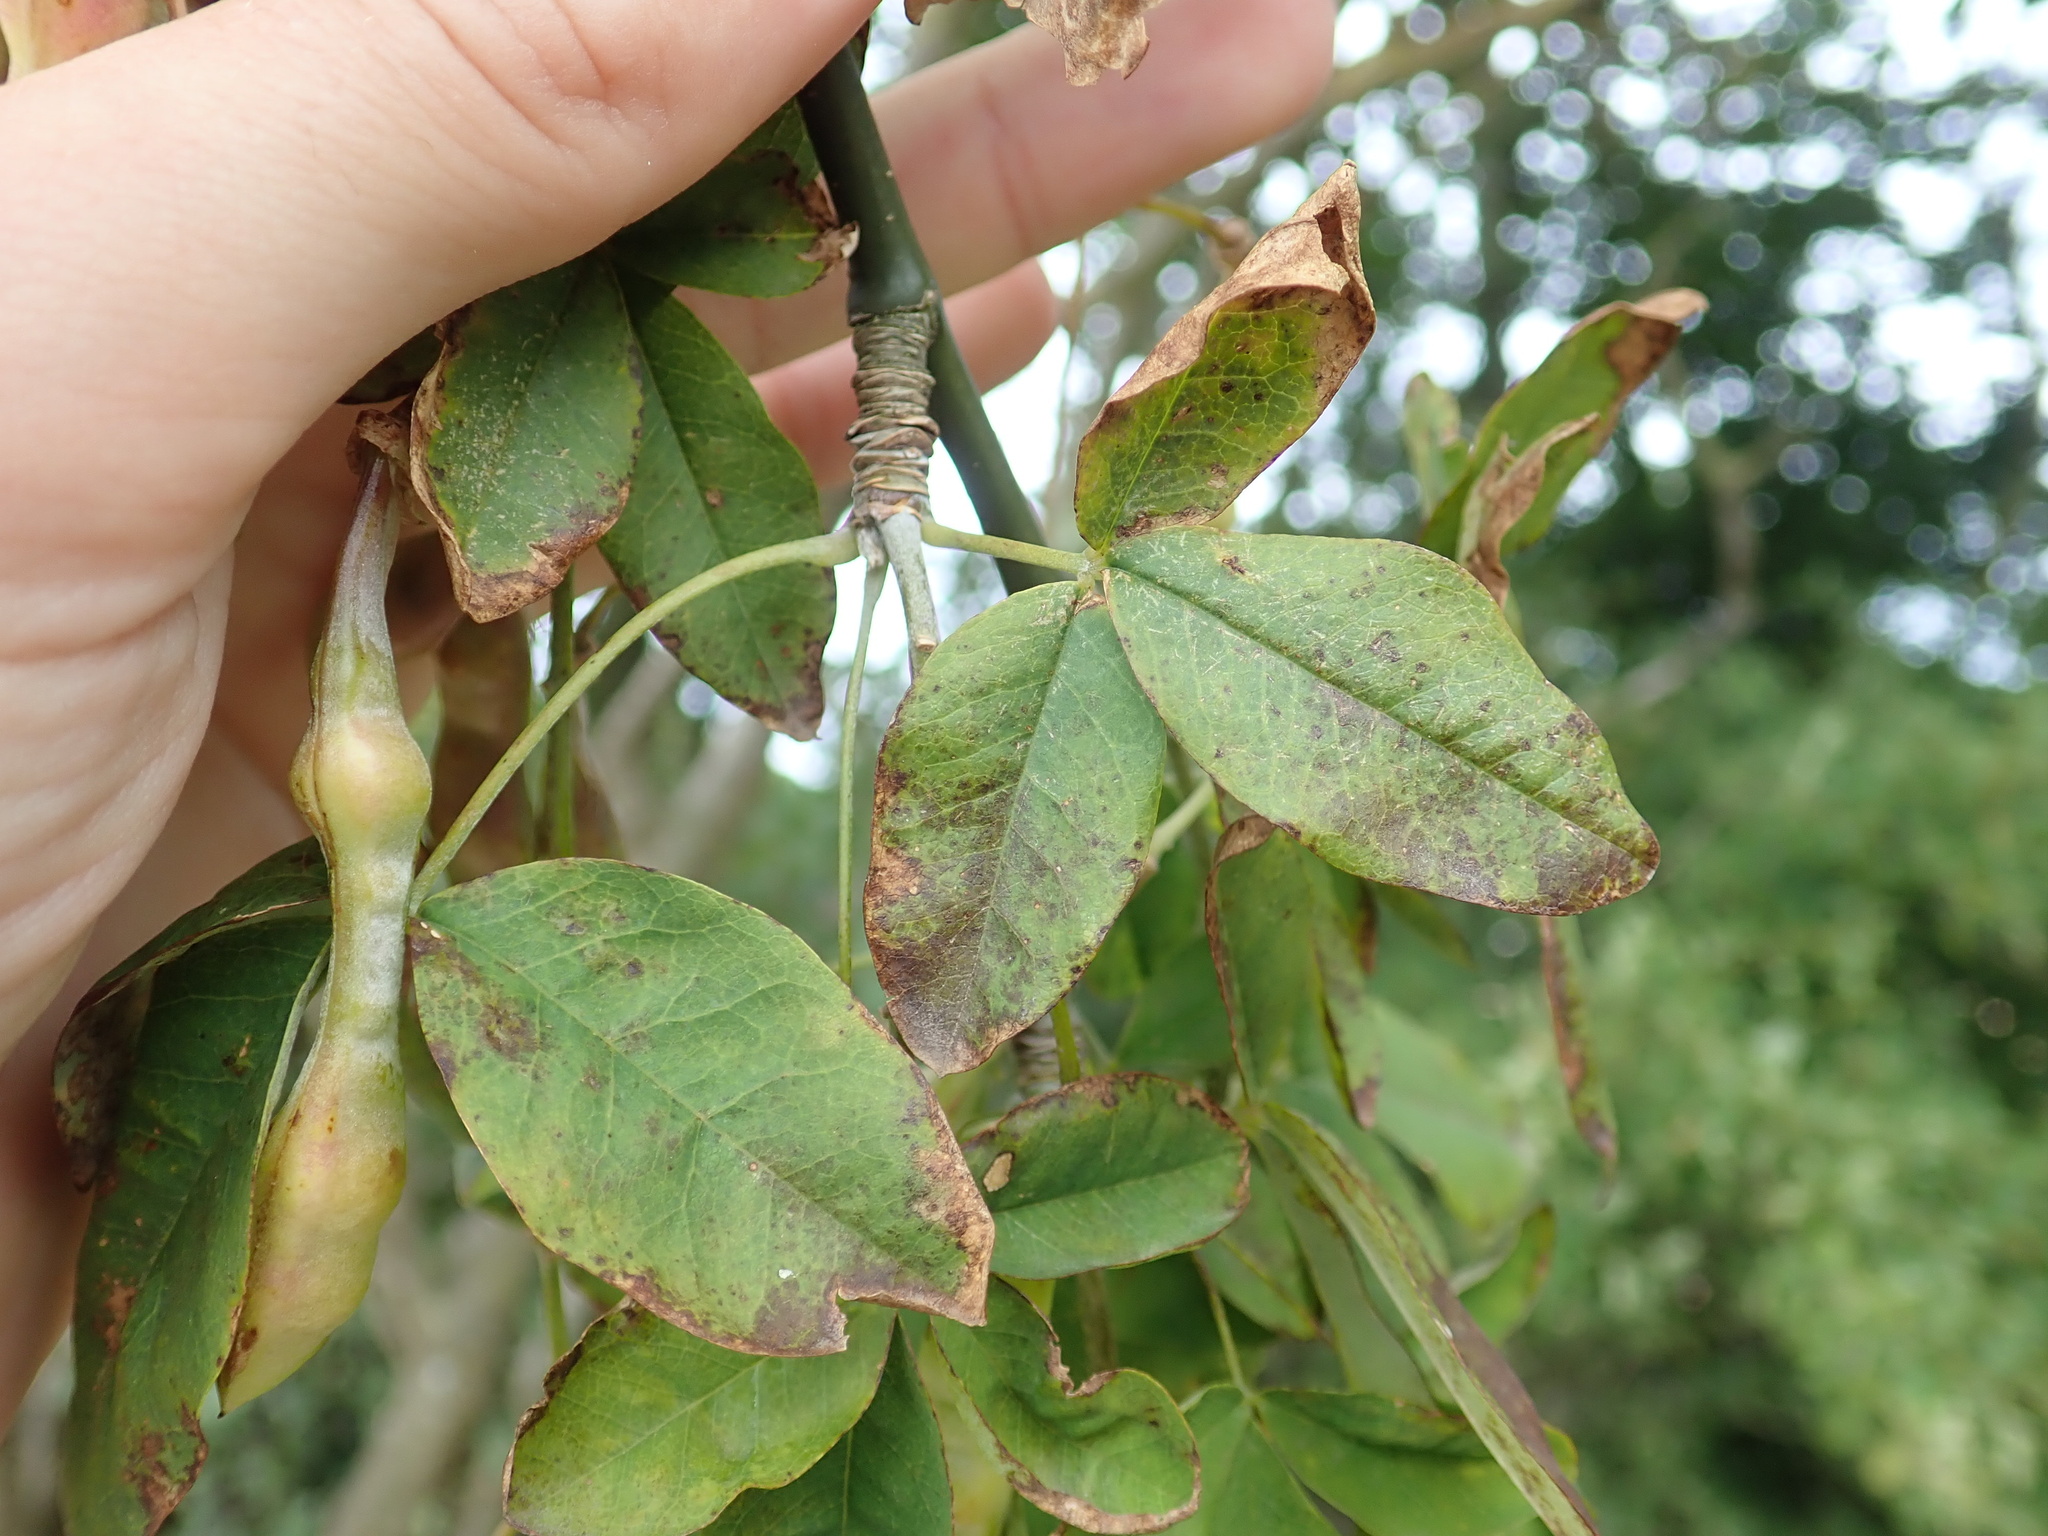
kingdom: Plantae
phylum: Tracheophyta
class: Magnoliopsida
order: Fabales
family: Fabaceae
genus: Laburnum
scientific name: Laburnum
